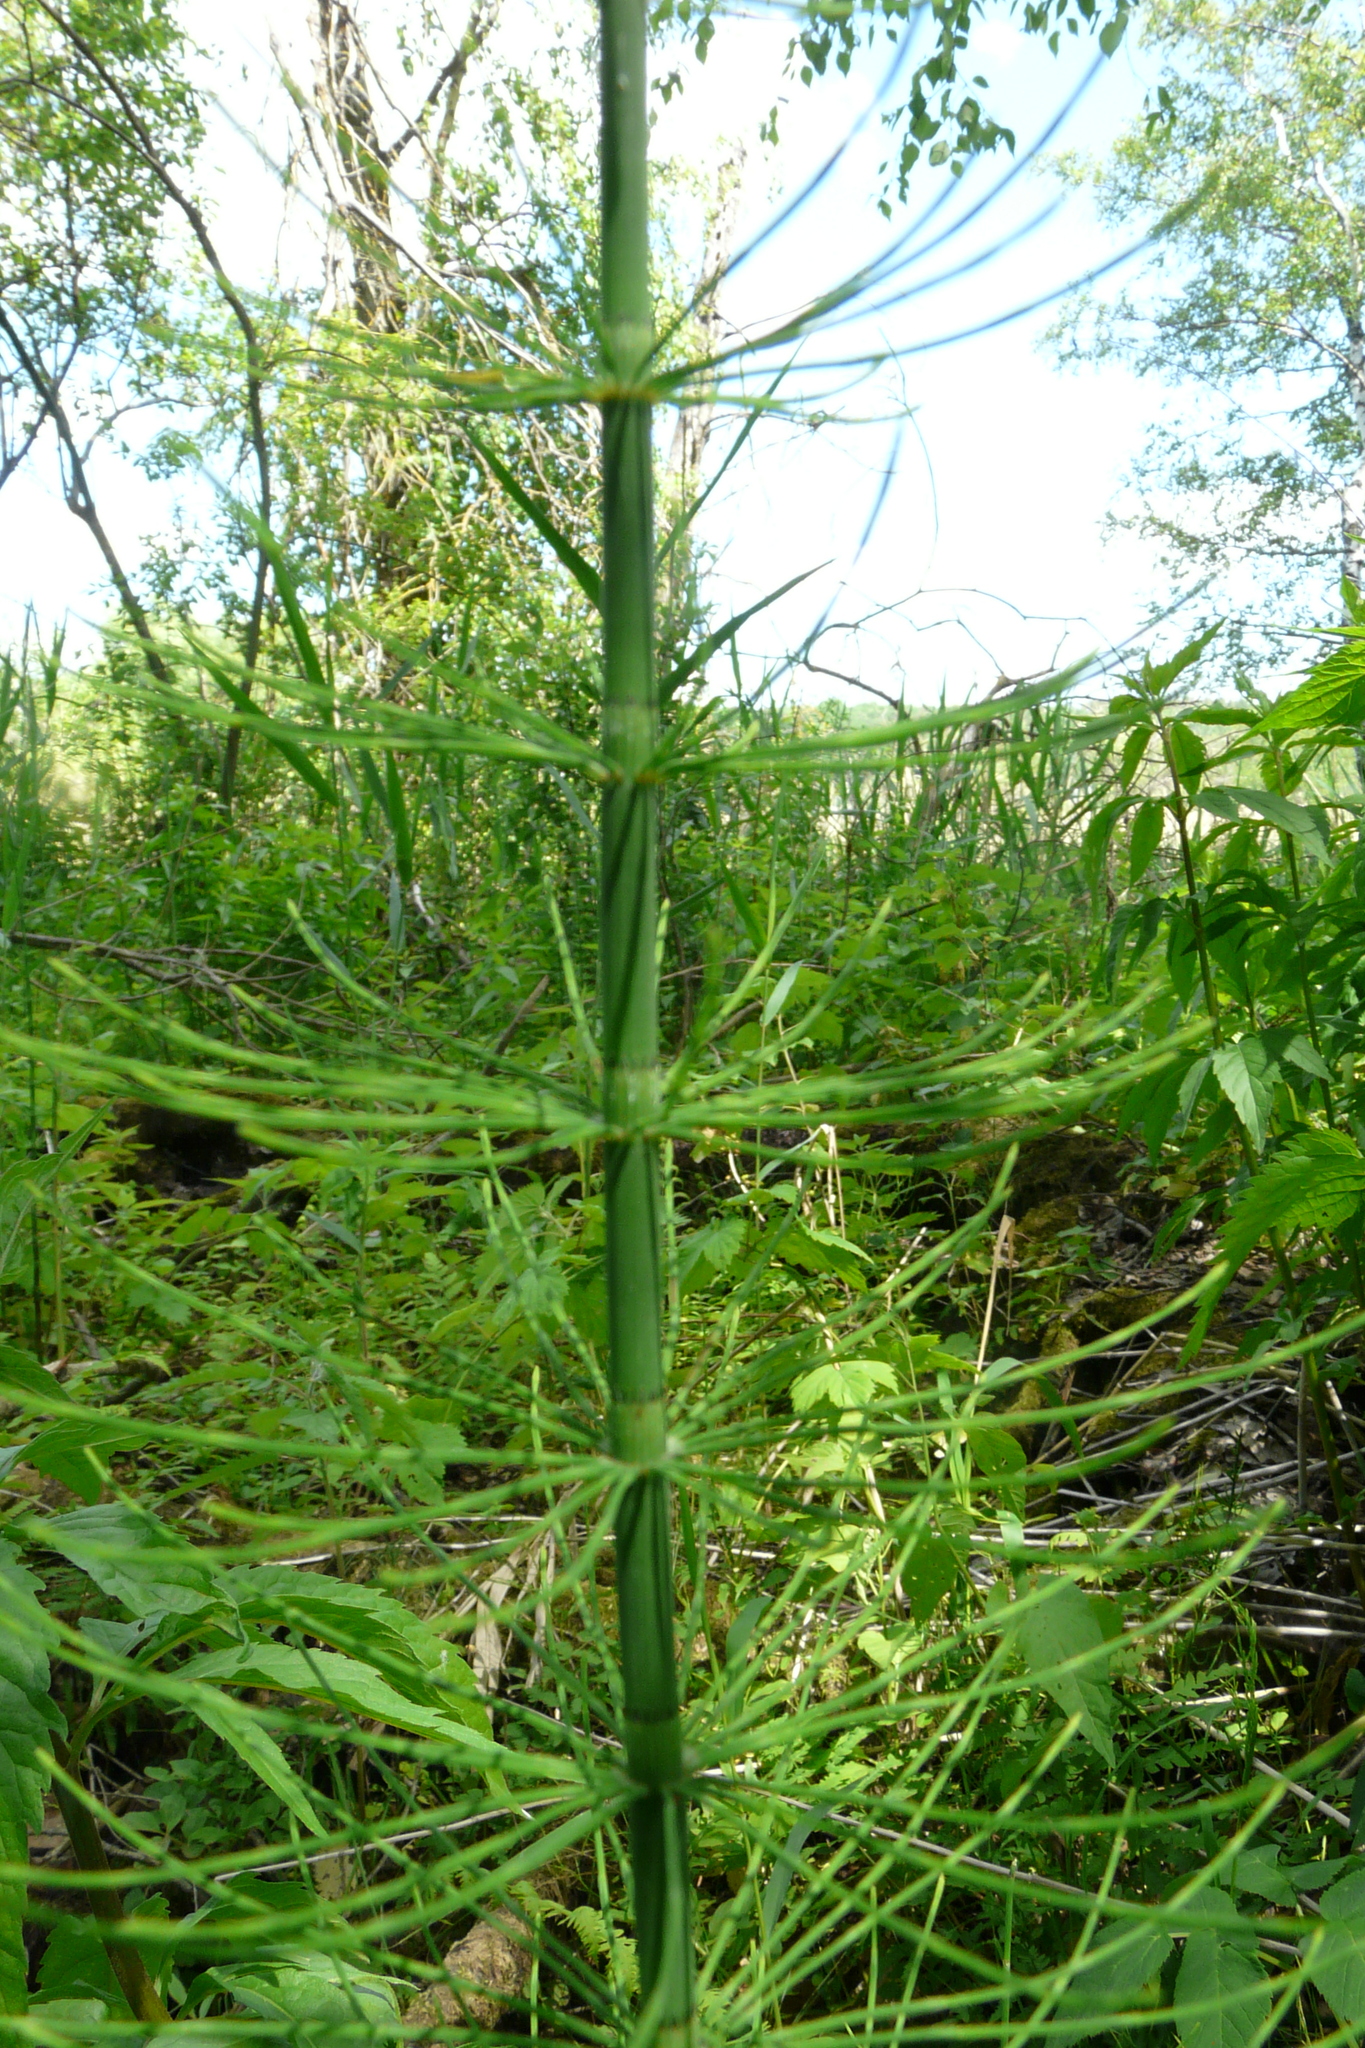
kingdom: Plantae
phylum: Tracheophyta
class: Polypodiopsida
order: Equisetales
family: Equisetaceae
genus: Equisetum
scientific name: Equisetum fluviatile
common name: Water horsetail
